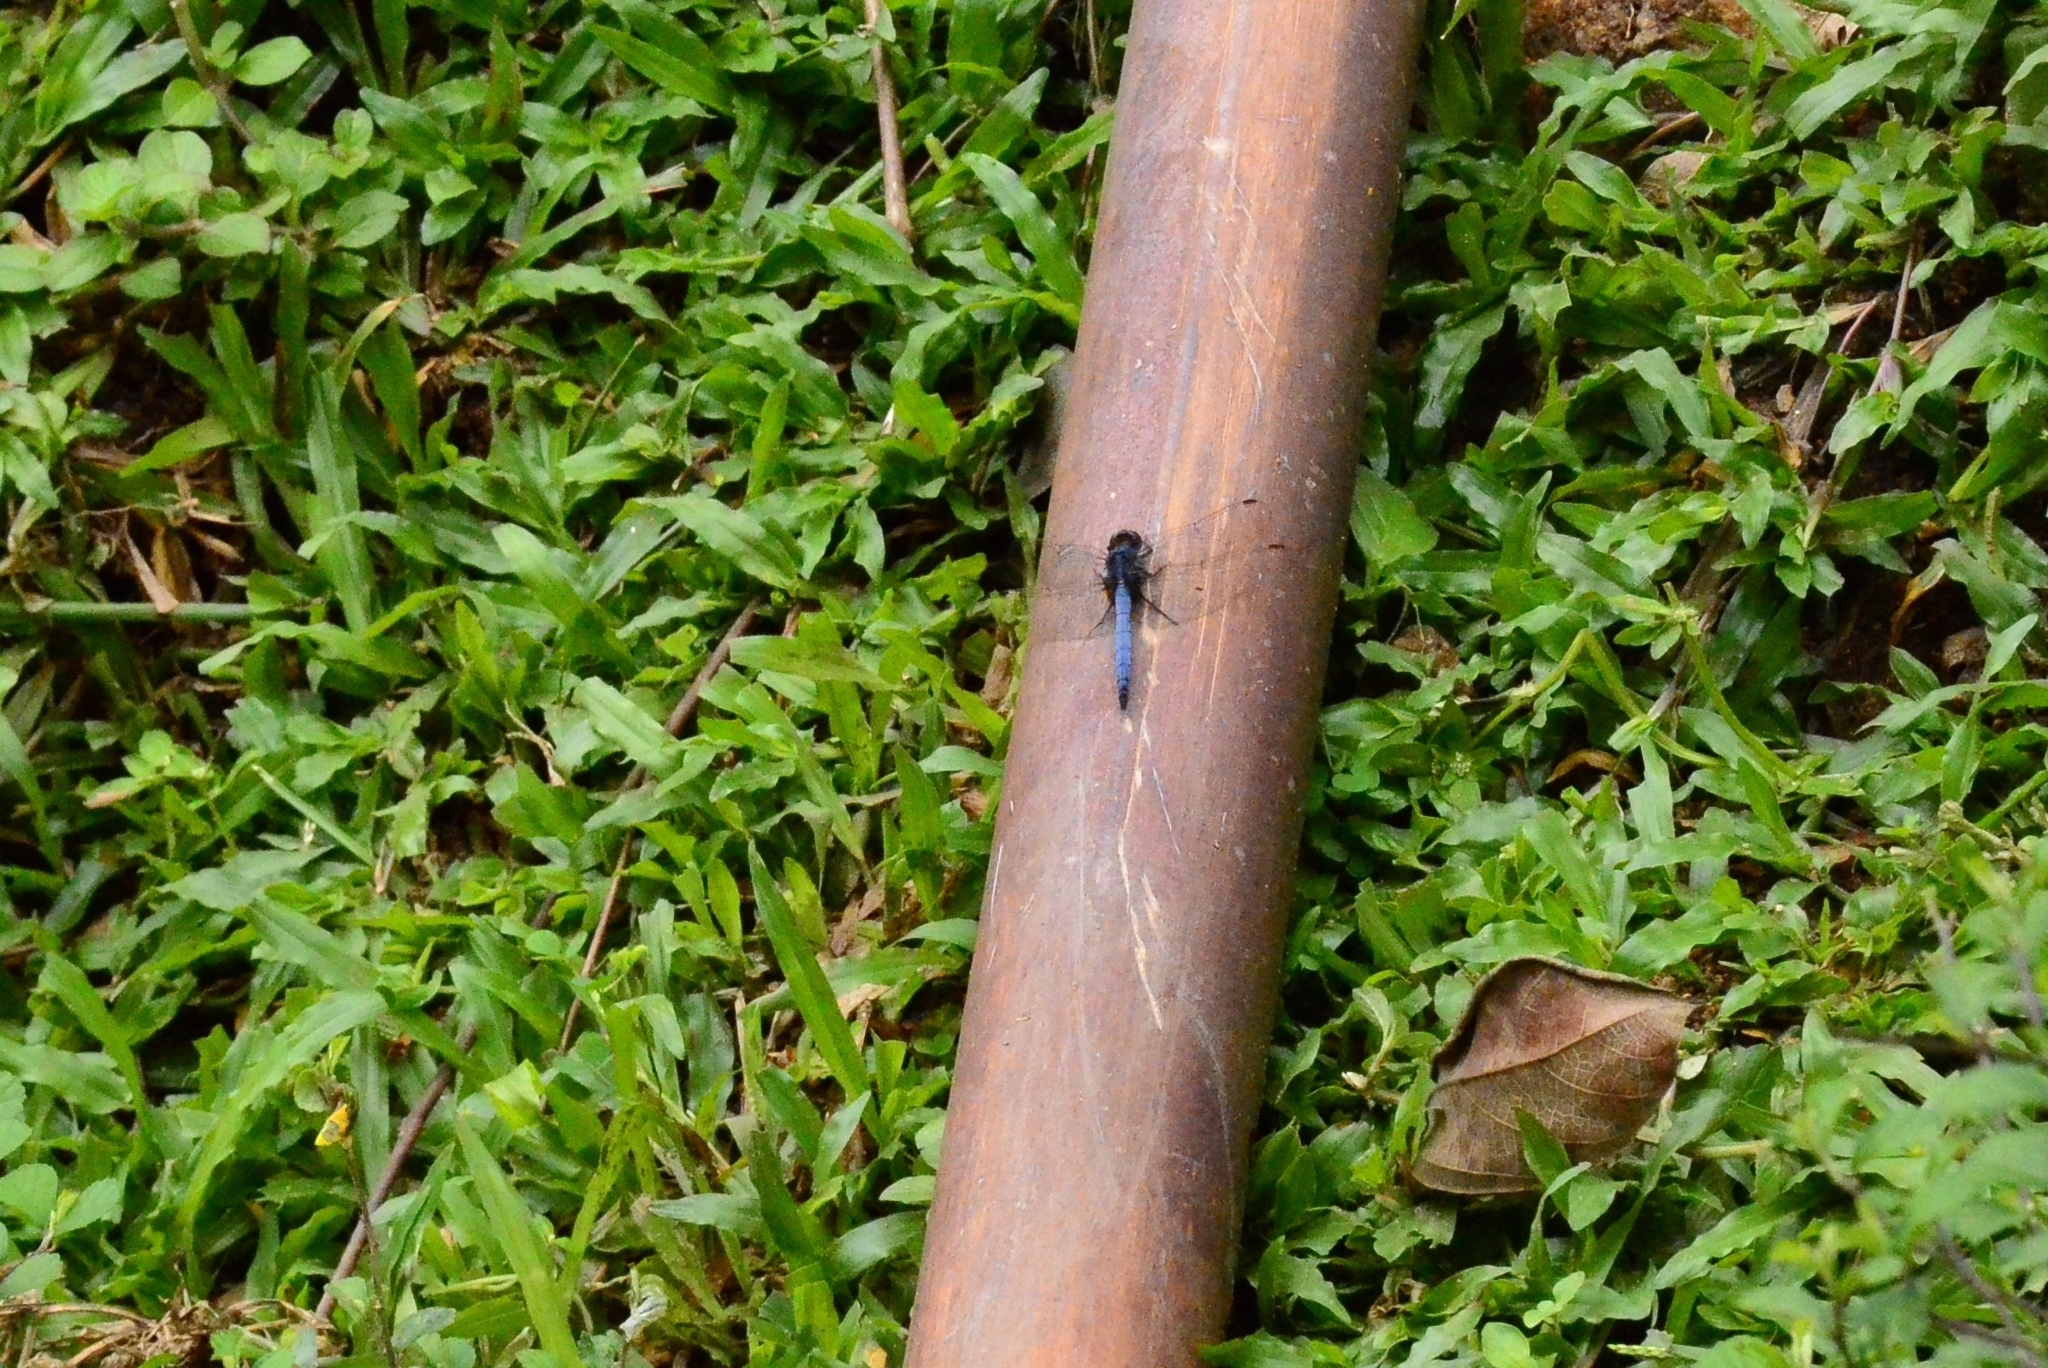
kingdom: Animalia
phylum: Arthropoda
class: Insecta
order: Odonata
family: Libellulidae
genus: Orthetrum
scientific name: Orthetrum glaucum
